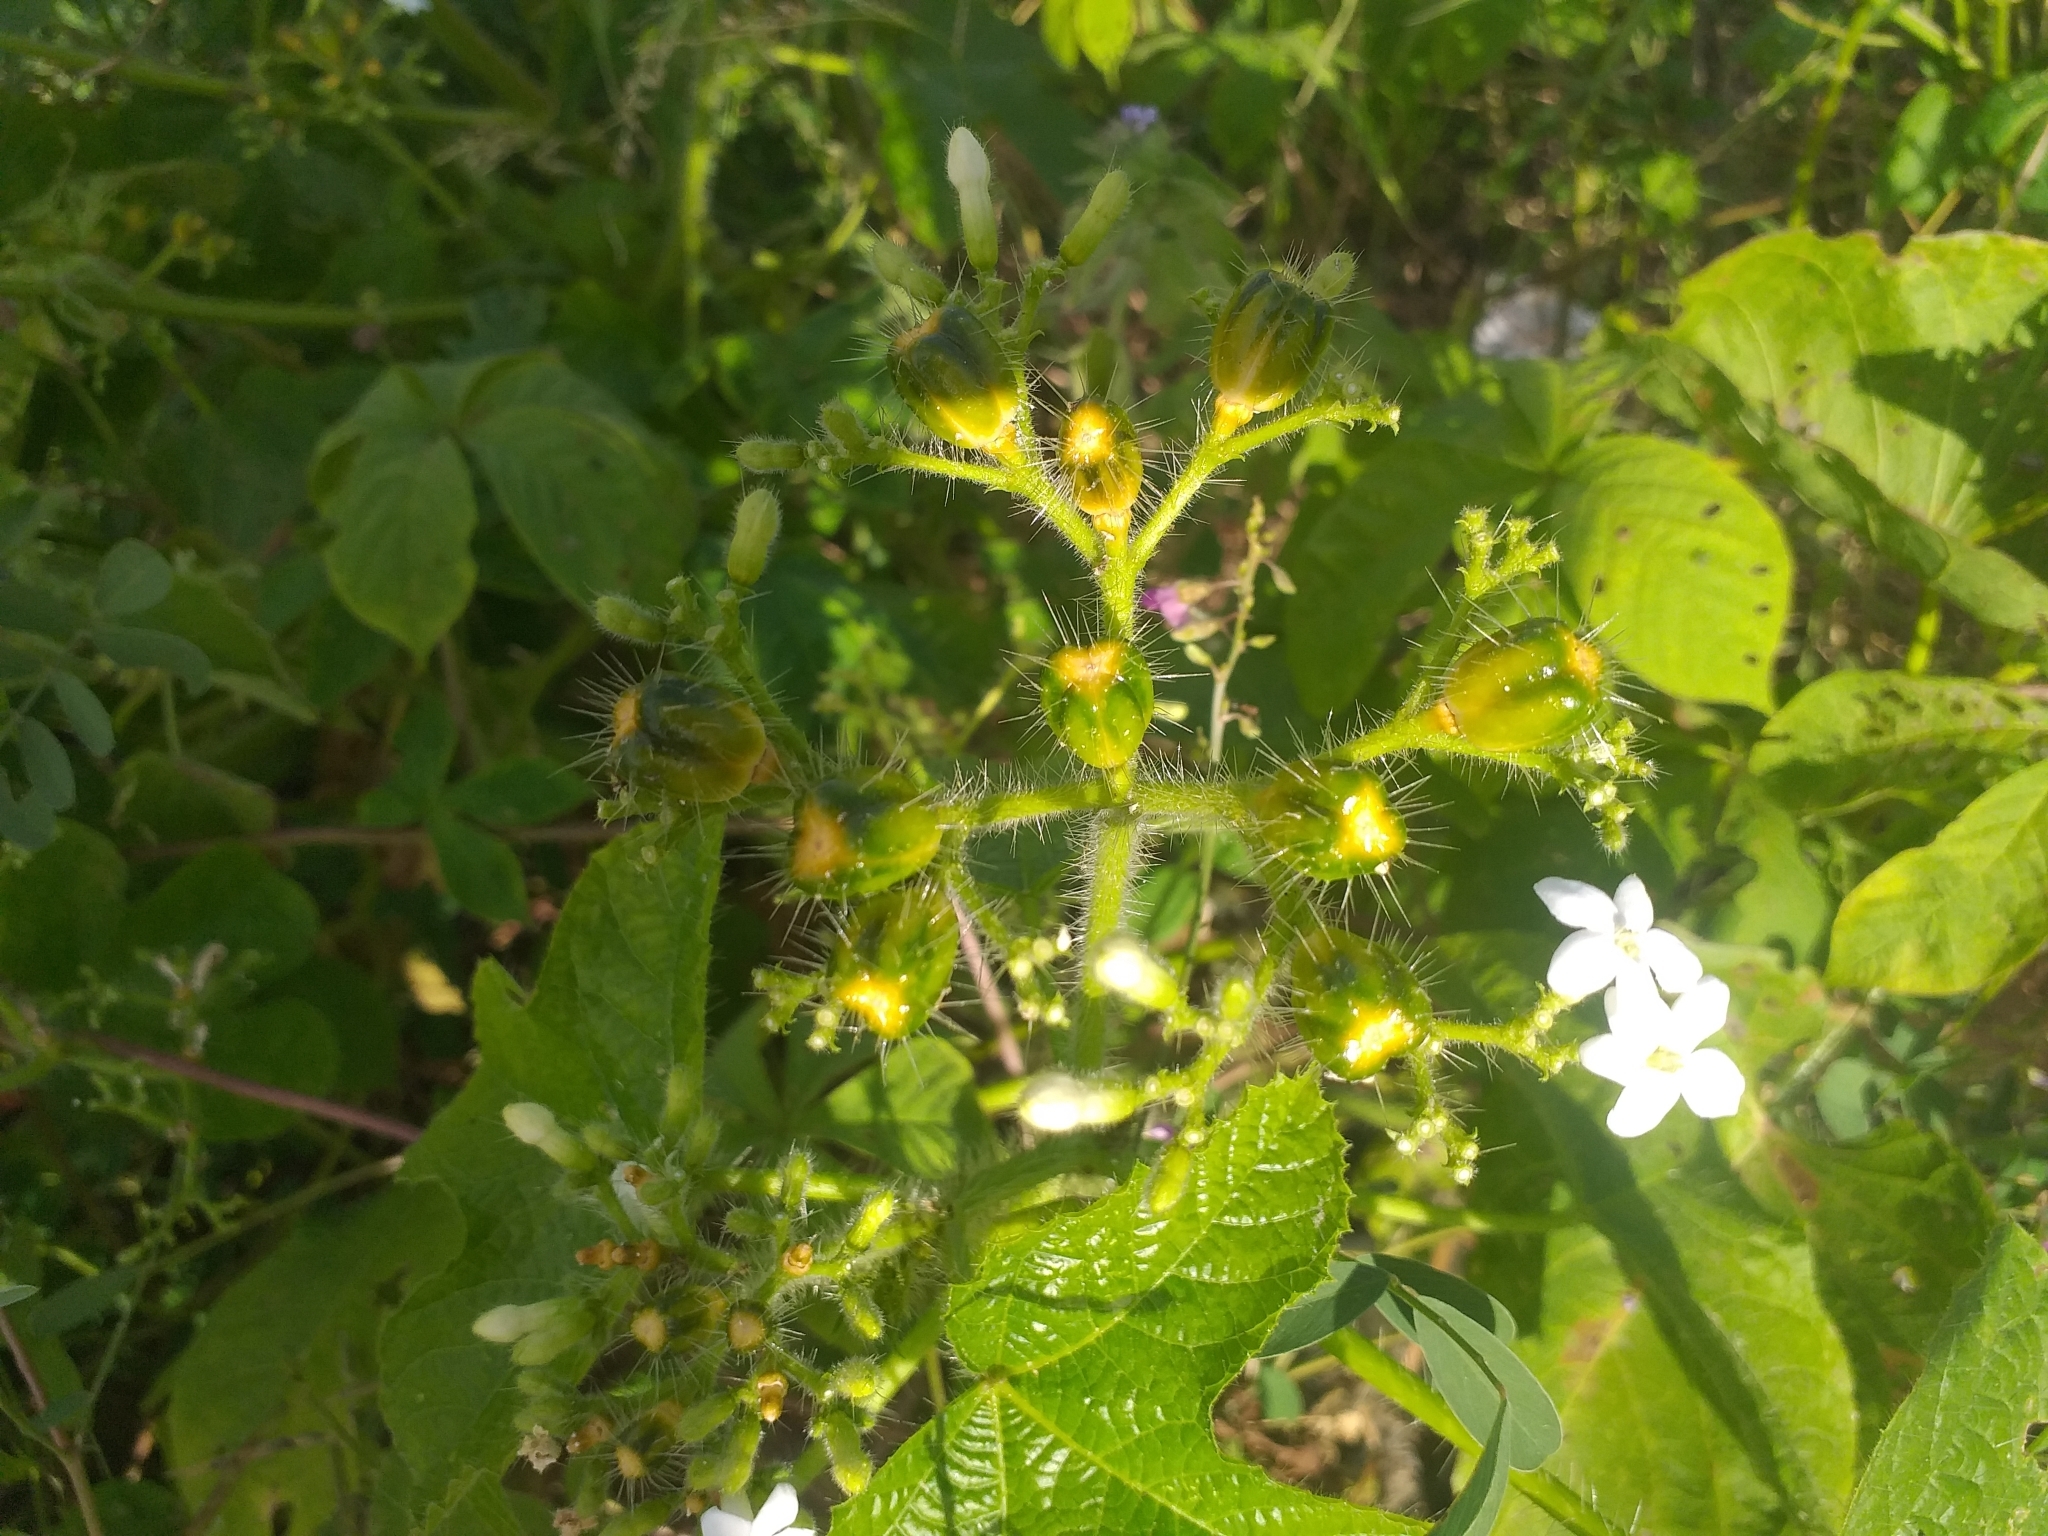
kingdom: Plantae
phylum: Tracheophyta
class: Magnoliopsida
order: Malpighiales
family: Euphorbiaceae
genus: Cnidoscolus
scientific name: Cnidoscolus urens
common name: Bull-nettle
